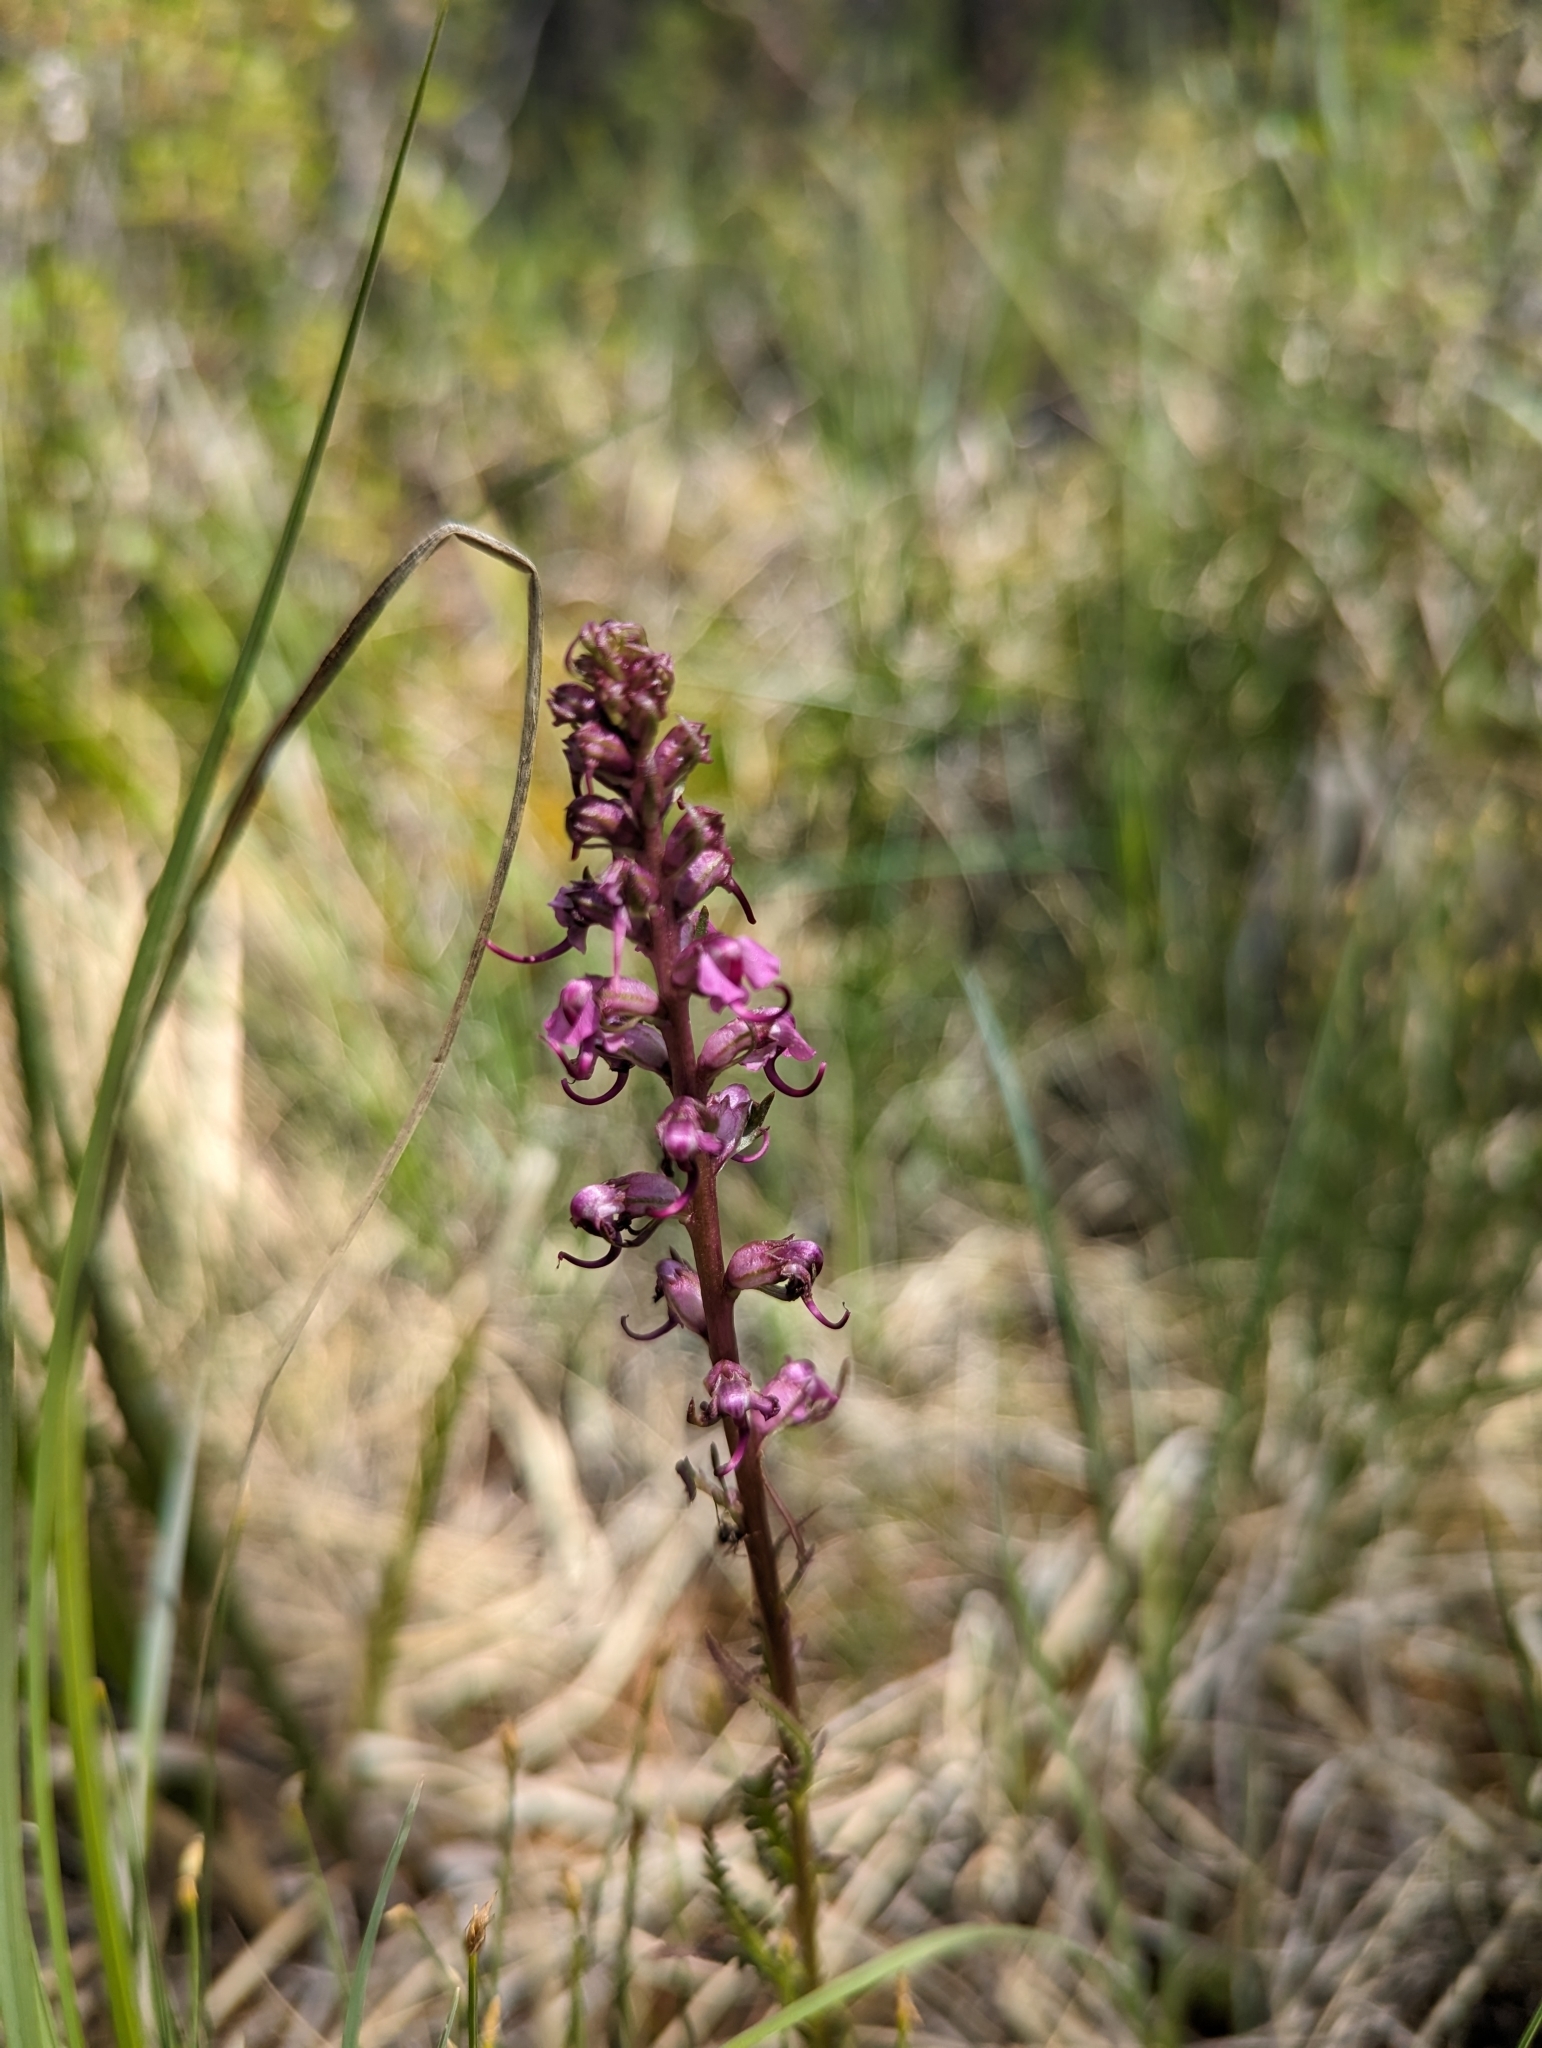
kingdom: Plantae
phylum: Tracheophyta
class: Magnoliopsida
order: Lamiales
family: Orobanchaceae
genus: Pedicularis
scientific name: Pedicularis groenlandica
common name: Elephant's-head
